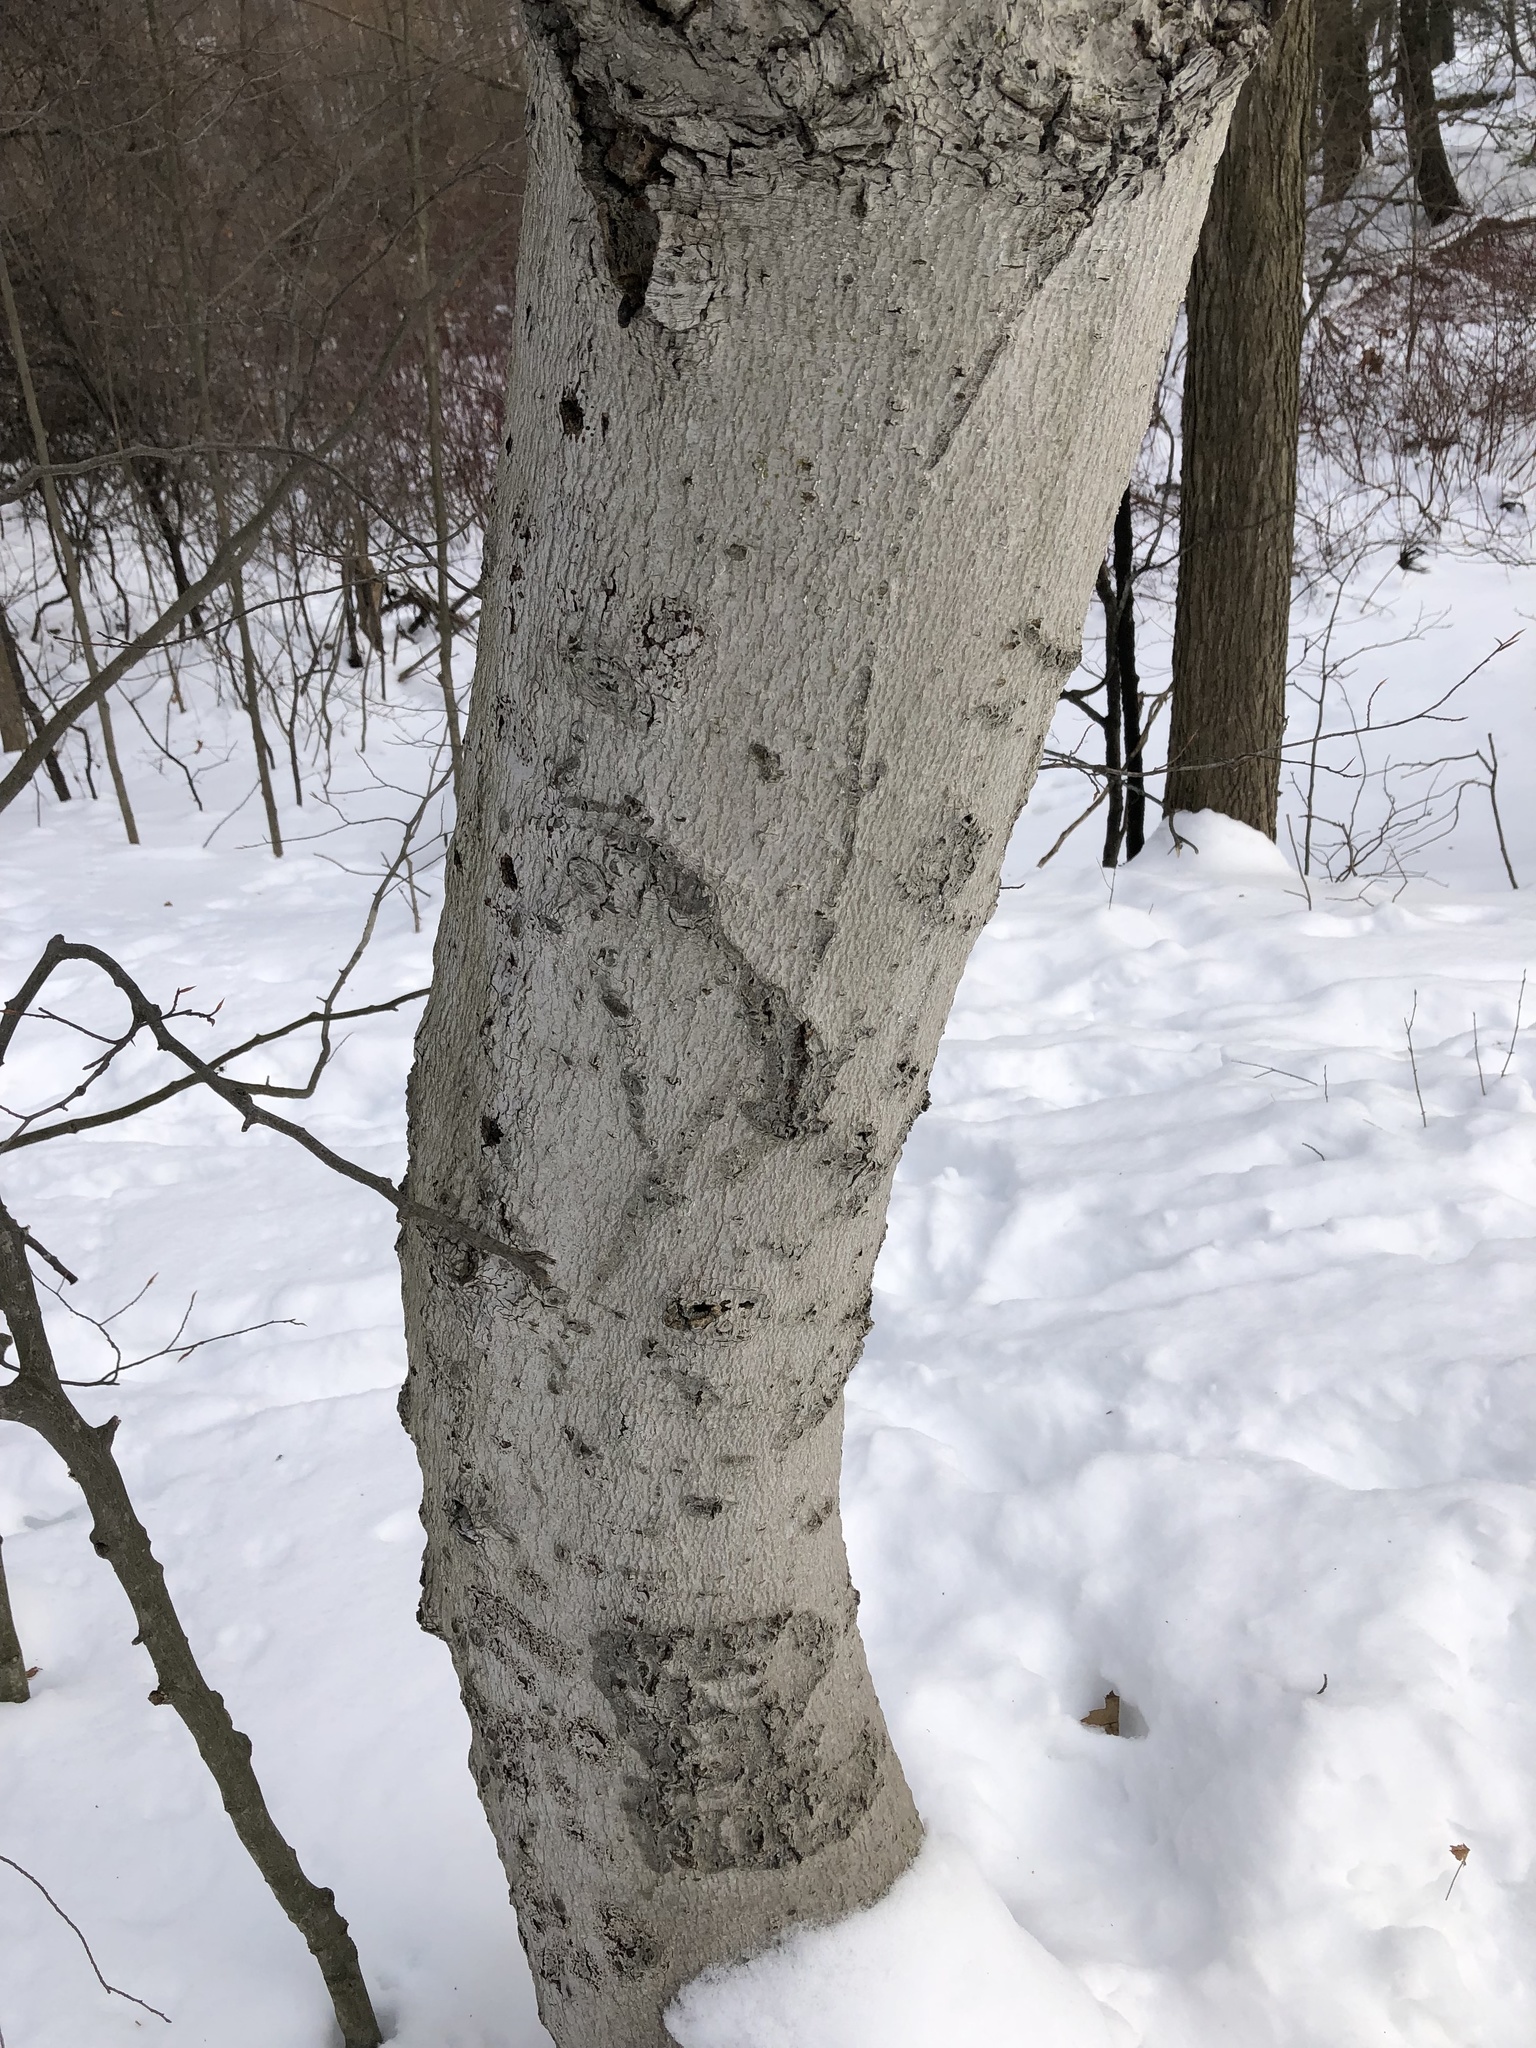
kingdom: Plantae
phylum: Tracheophyta
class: Magnoliopsida
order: Fagales
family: Fagaceae
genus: Fagus
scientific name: Fagus grandifolia
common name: American beech
